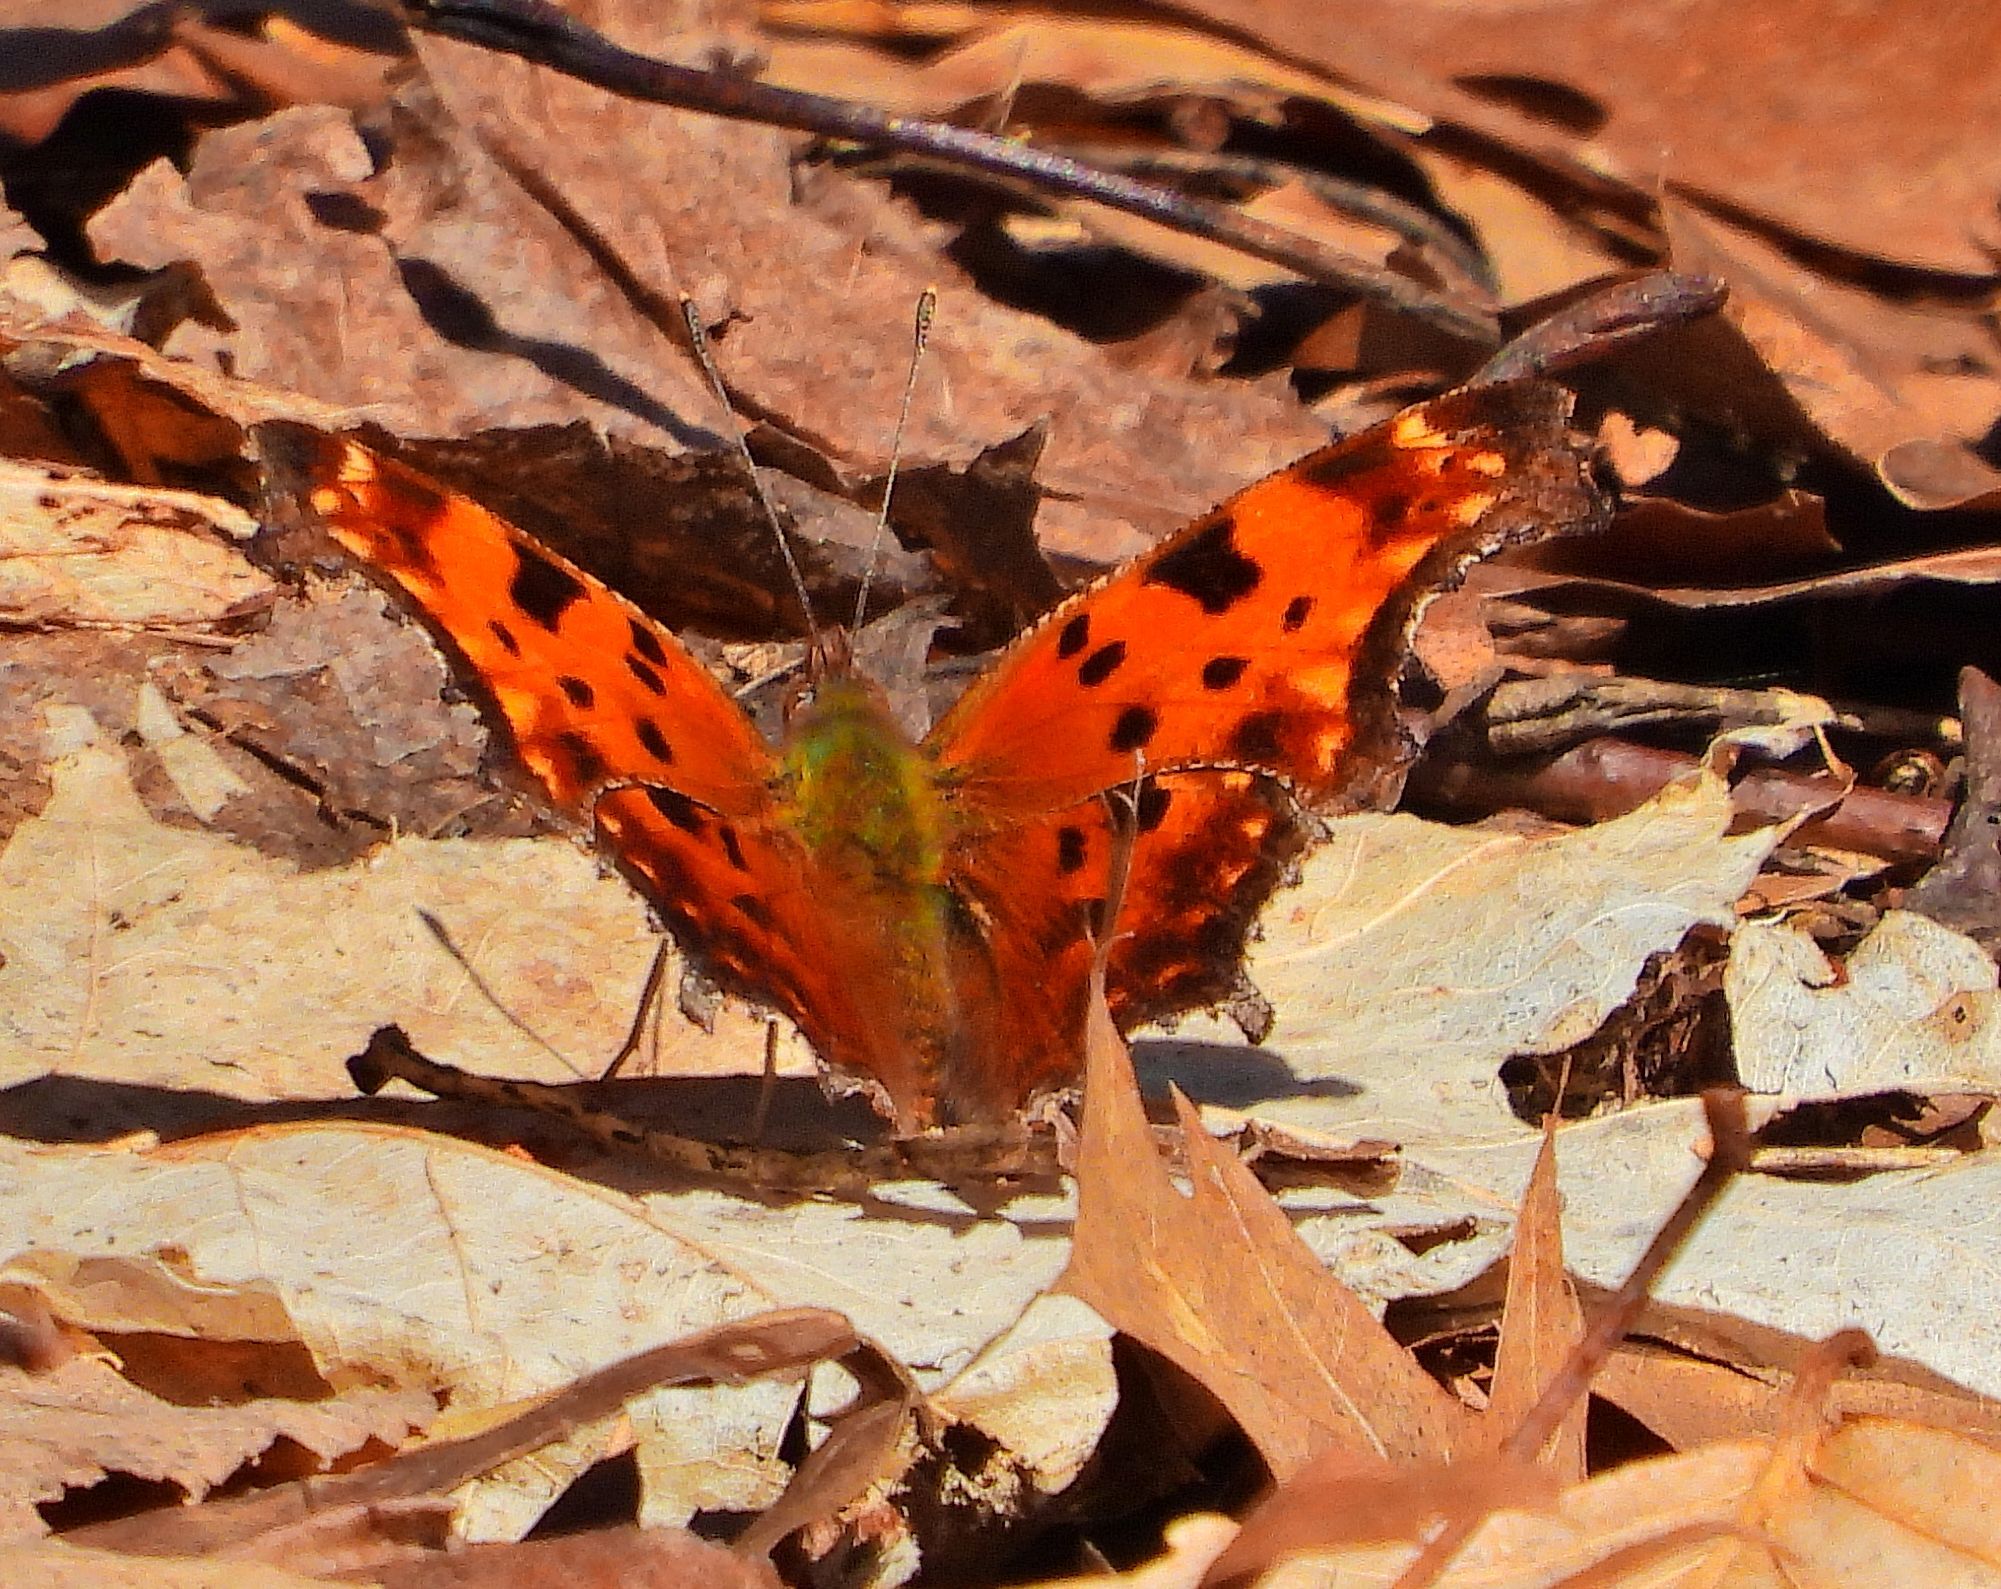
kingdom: Animalia
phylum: Arthropoda
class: Insecta
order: Lepidoptera
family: Nymphalidae
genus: Polygonia
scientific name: Polygonia comma
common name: Eastern comma
